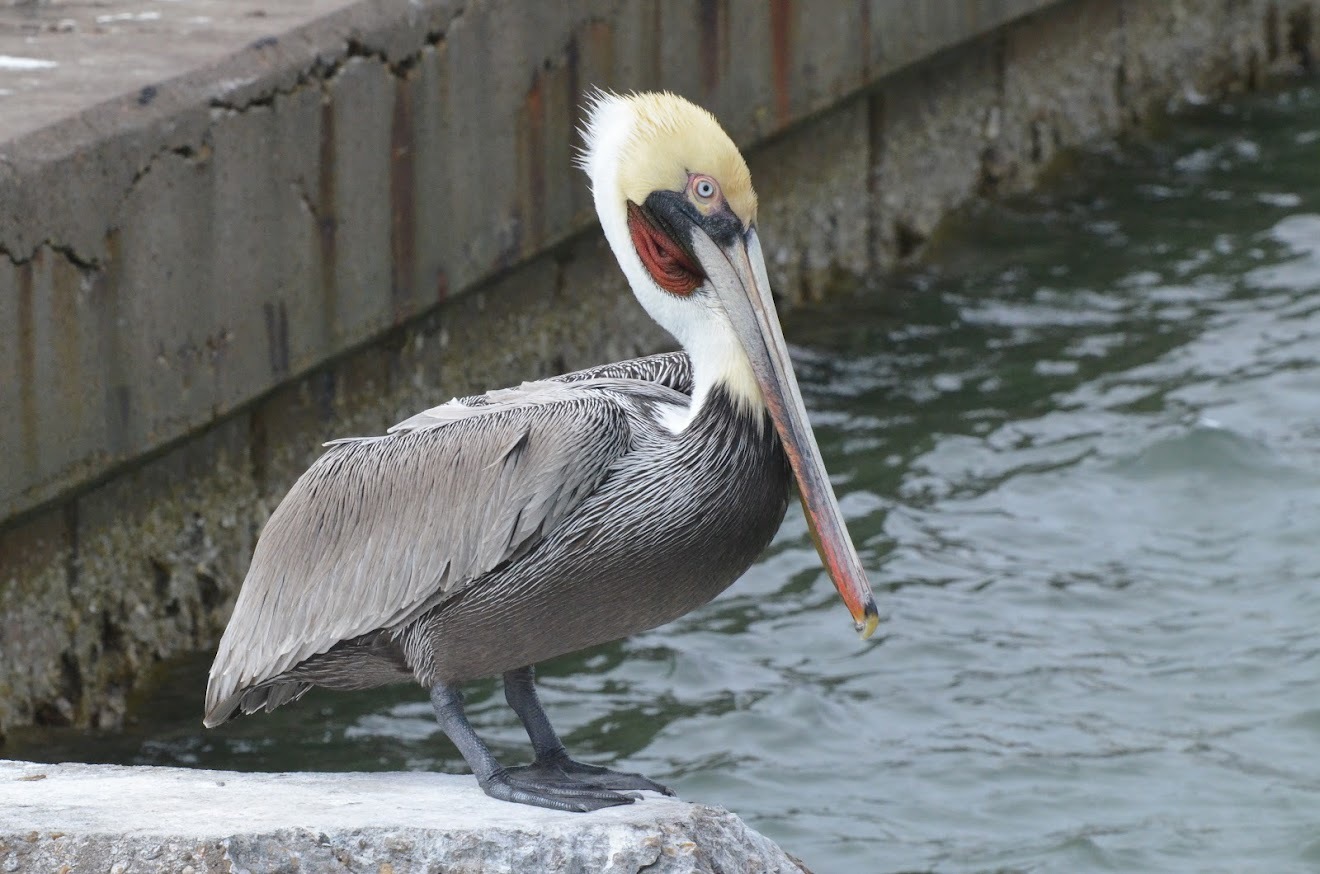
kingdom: Animalia
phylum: Chordata
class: Aves
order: Pelecaniformes
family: Pelecanidae
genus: Pelecanus
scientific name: Pelecanus occidentalis
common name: Brown pelican
